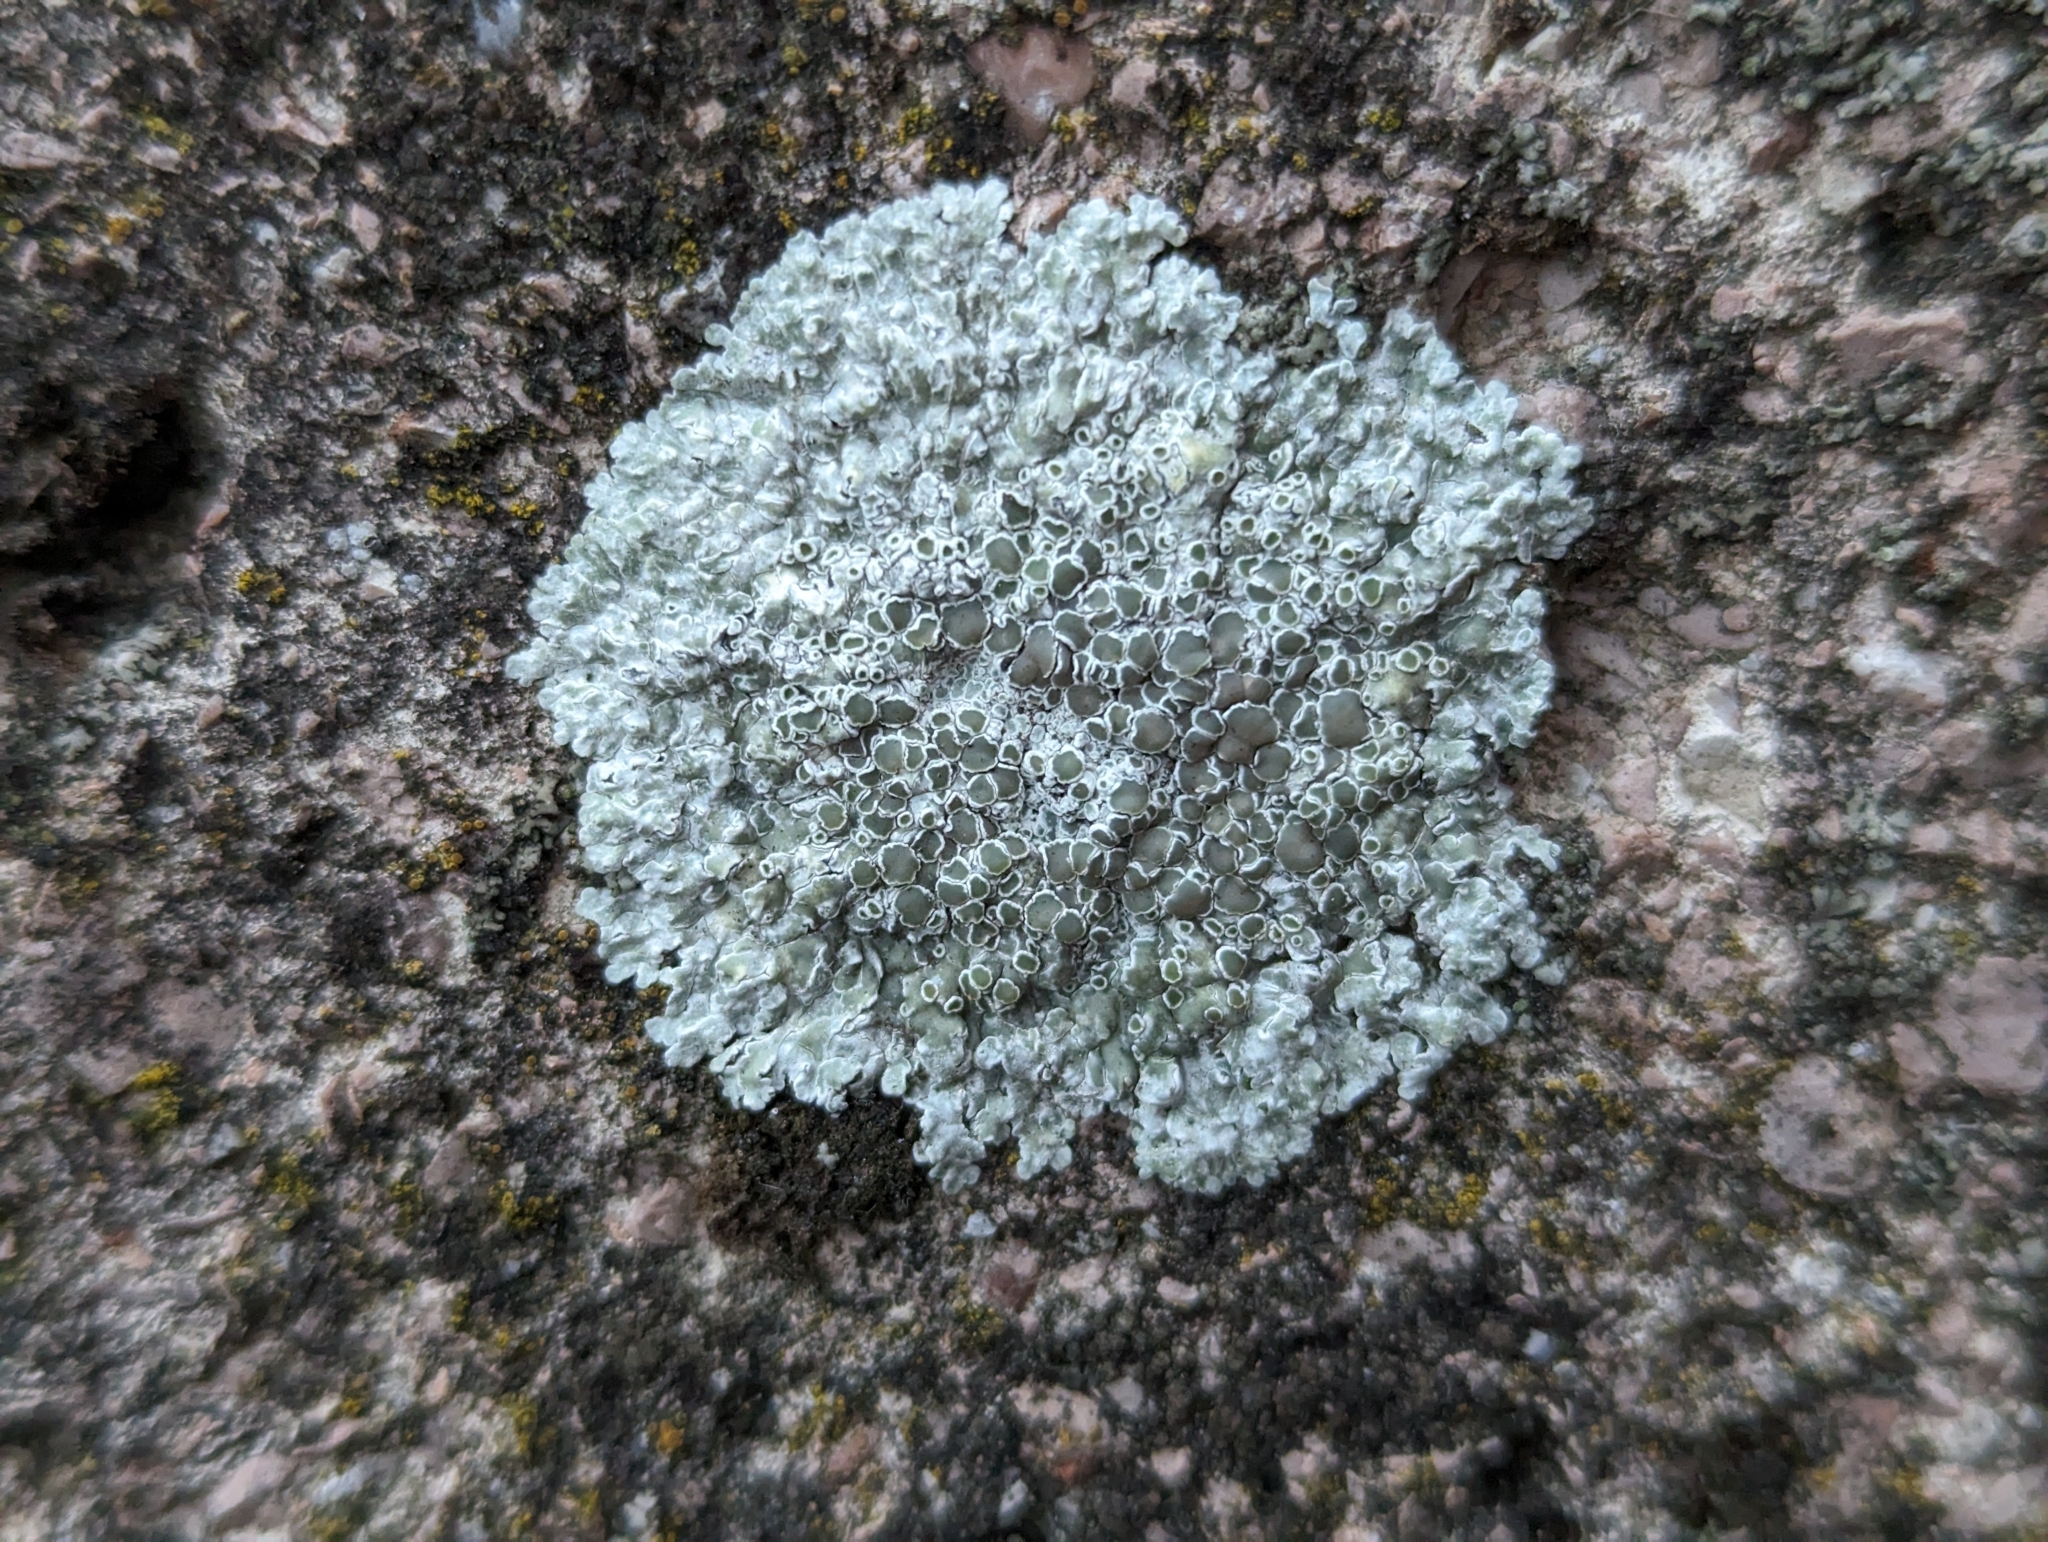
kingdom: Fungi
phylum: Ascomycota
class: Lecanoromycetes
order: Lecanorales
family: Lecanoraceae
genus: Protoparmeliopsis
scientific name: Protoparmeliopsis muralis
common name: Stonewall rim lichen
